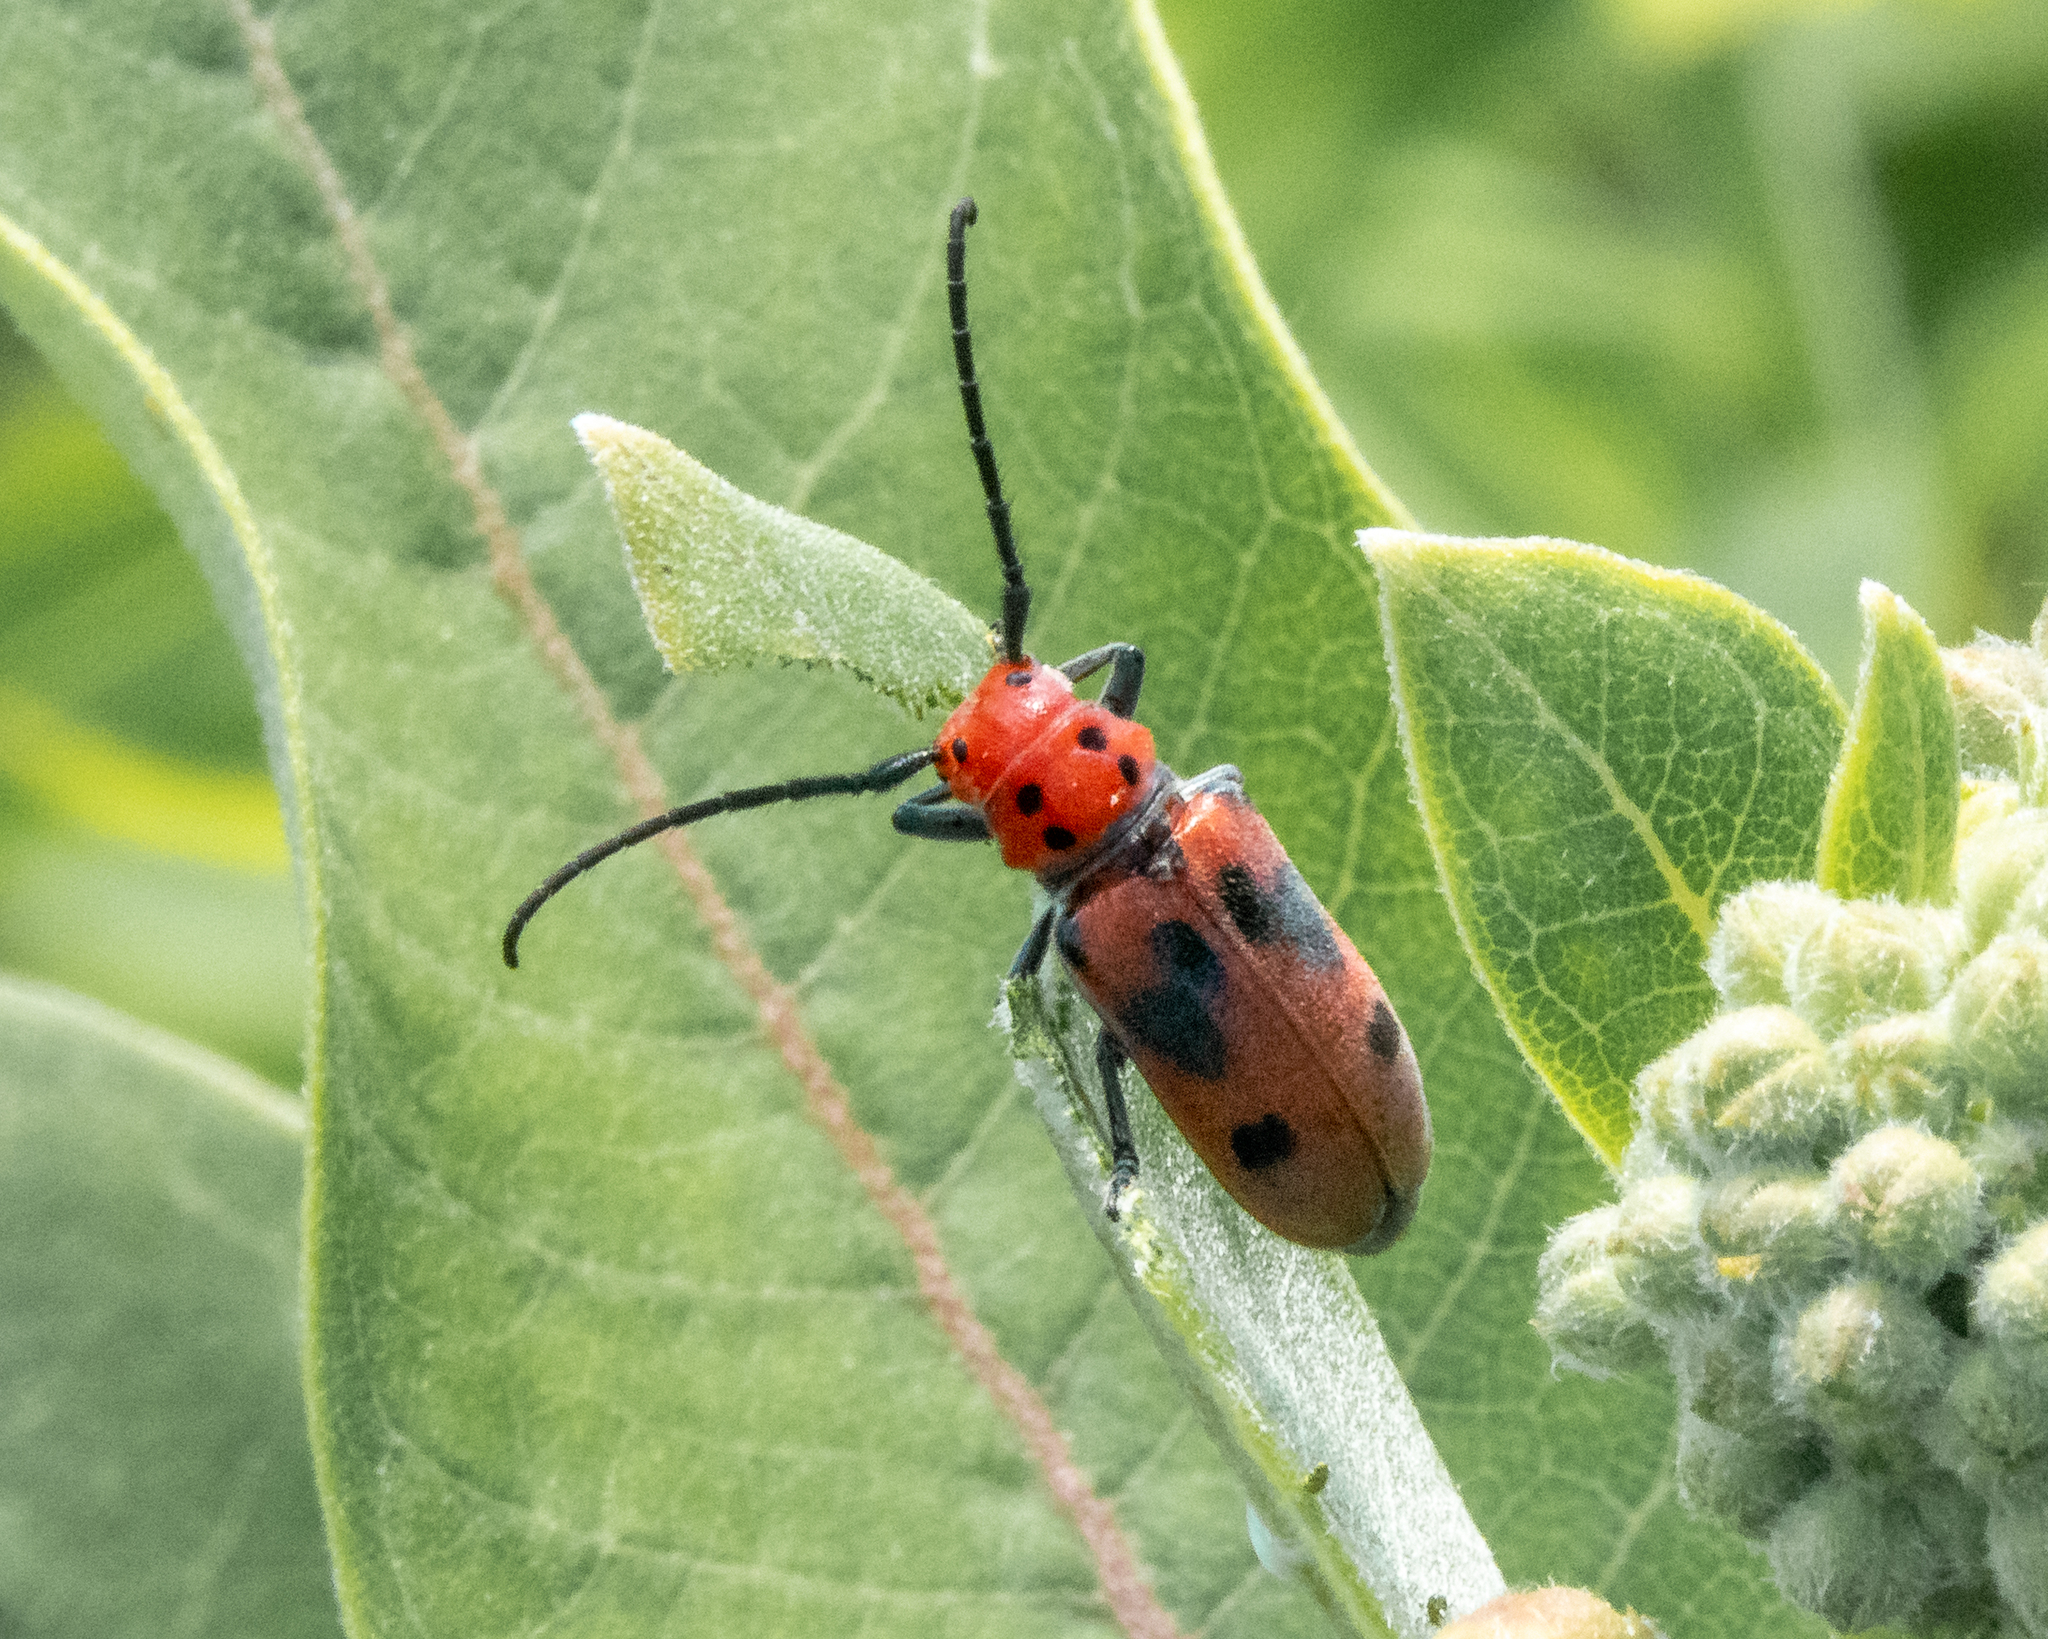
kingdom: Animalia
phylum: Arthropoda
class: Insecta
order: Coleoptera
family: Cerambycidae
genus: Tetraopes
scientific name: Tetraopes tetrophthalmus
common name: Red milkweed beetle
